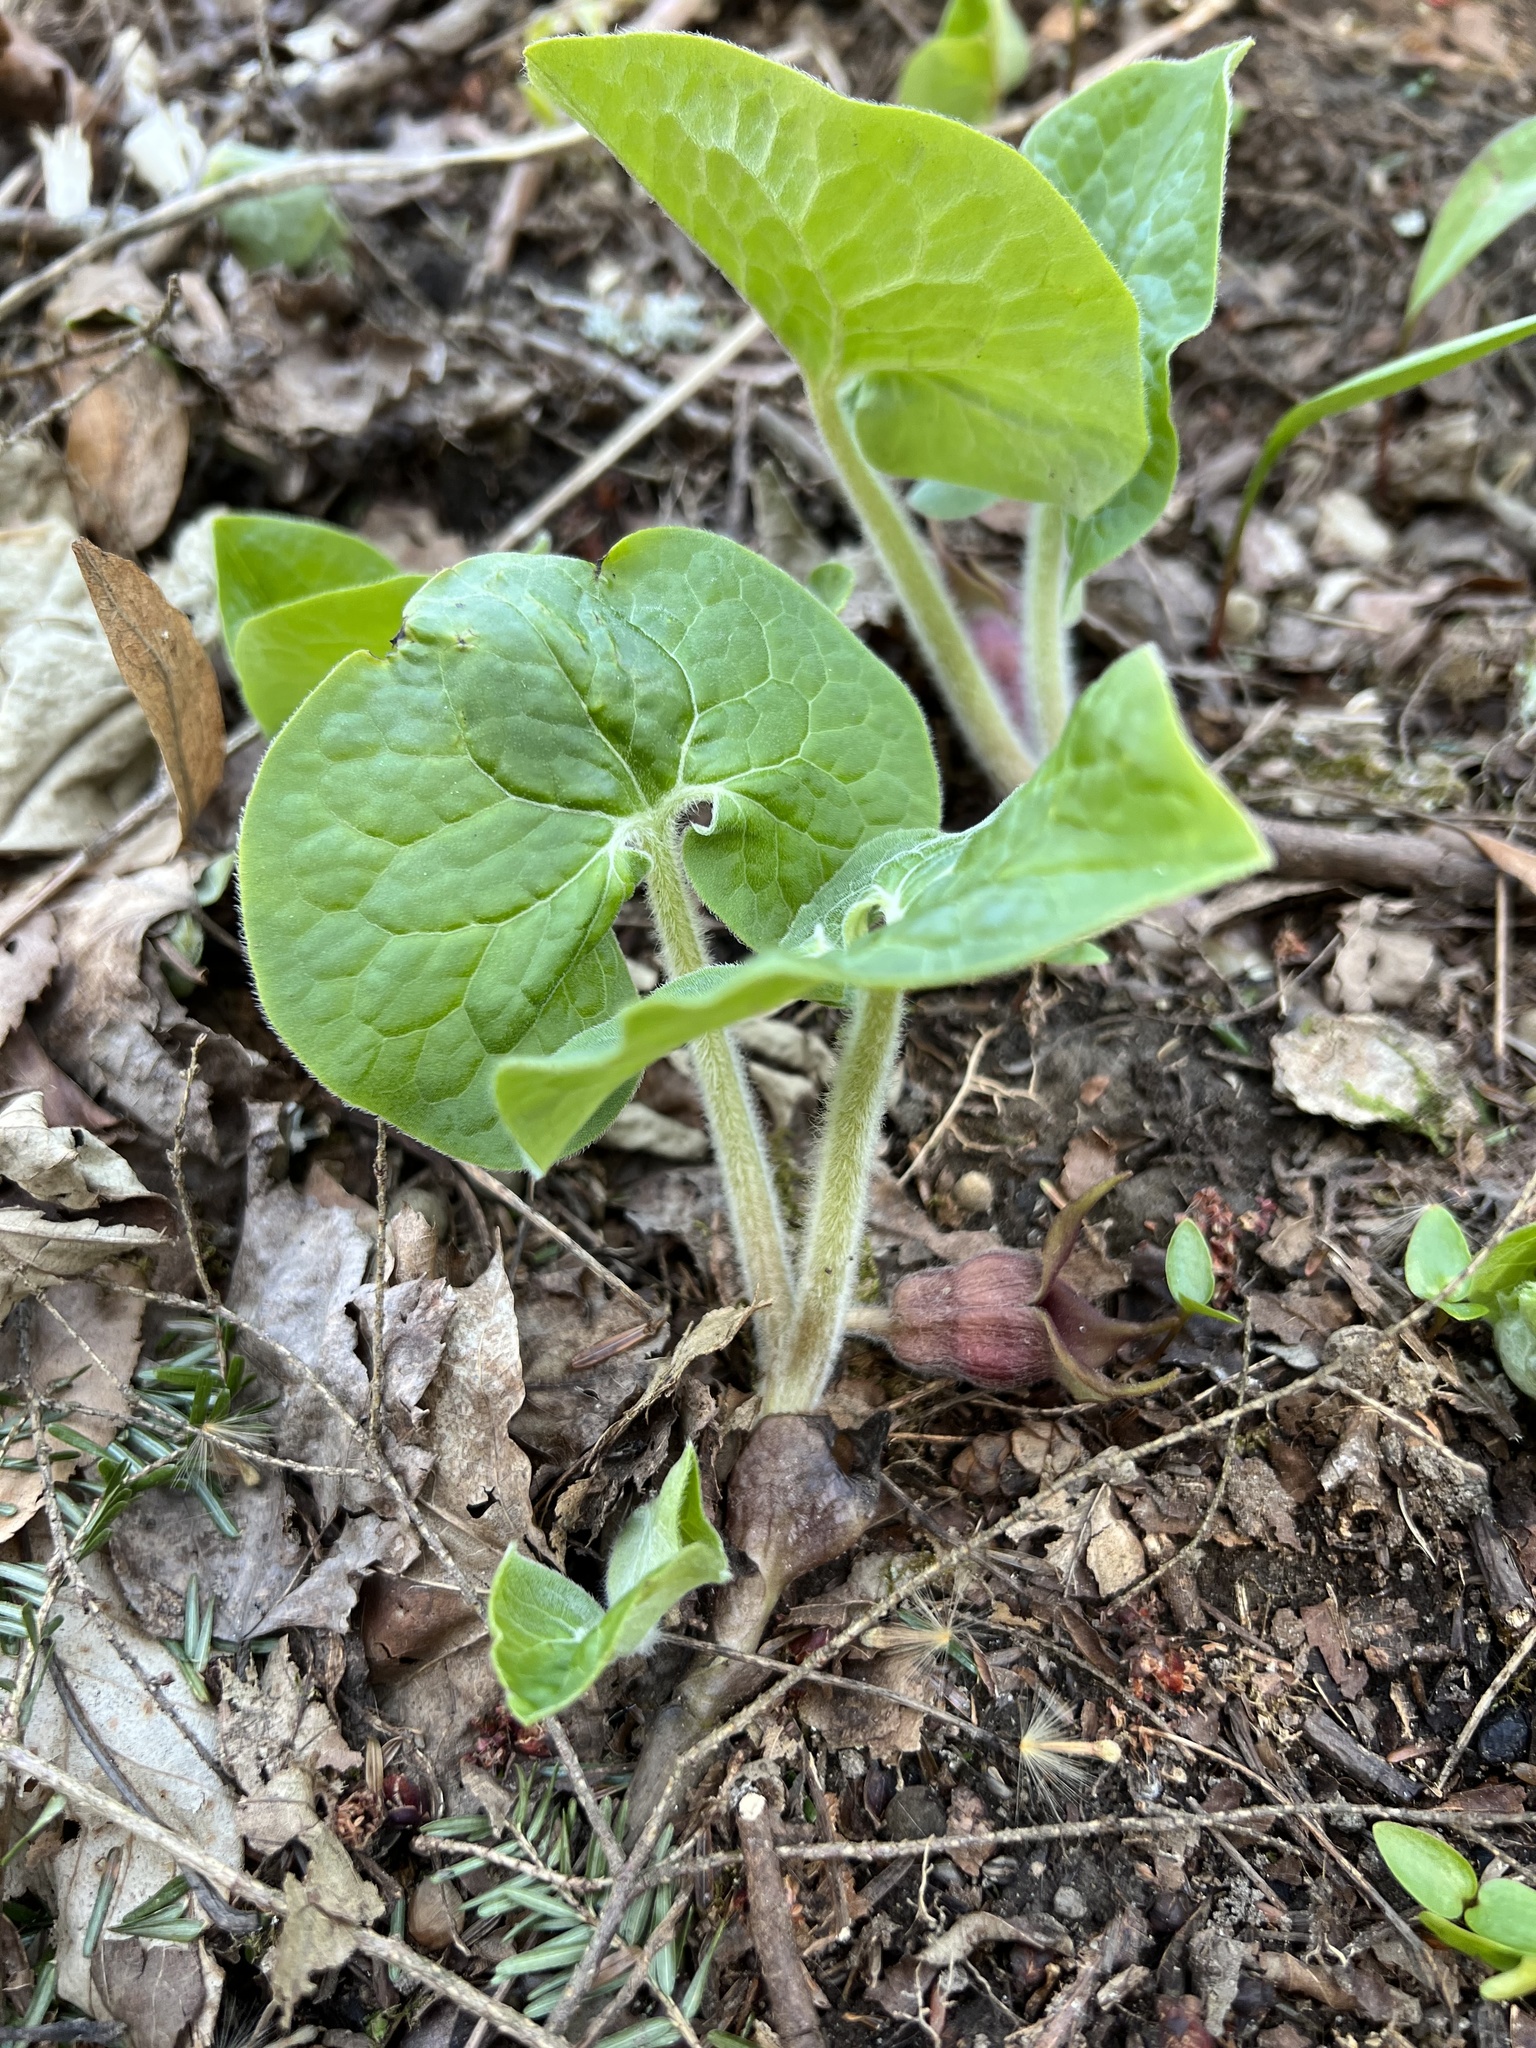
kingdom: Plantae
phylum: Tracheophyta
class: Magnoliopsida
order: Piperales
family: Aristolochiaceae
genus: Asarum
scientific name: Asarum canadense
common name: Wild ginger
